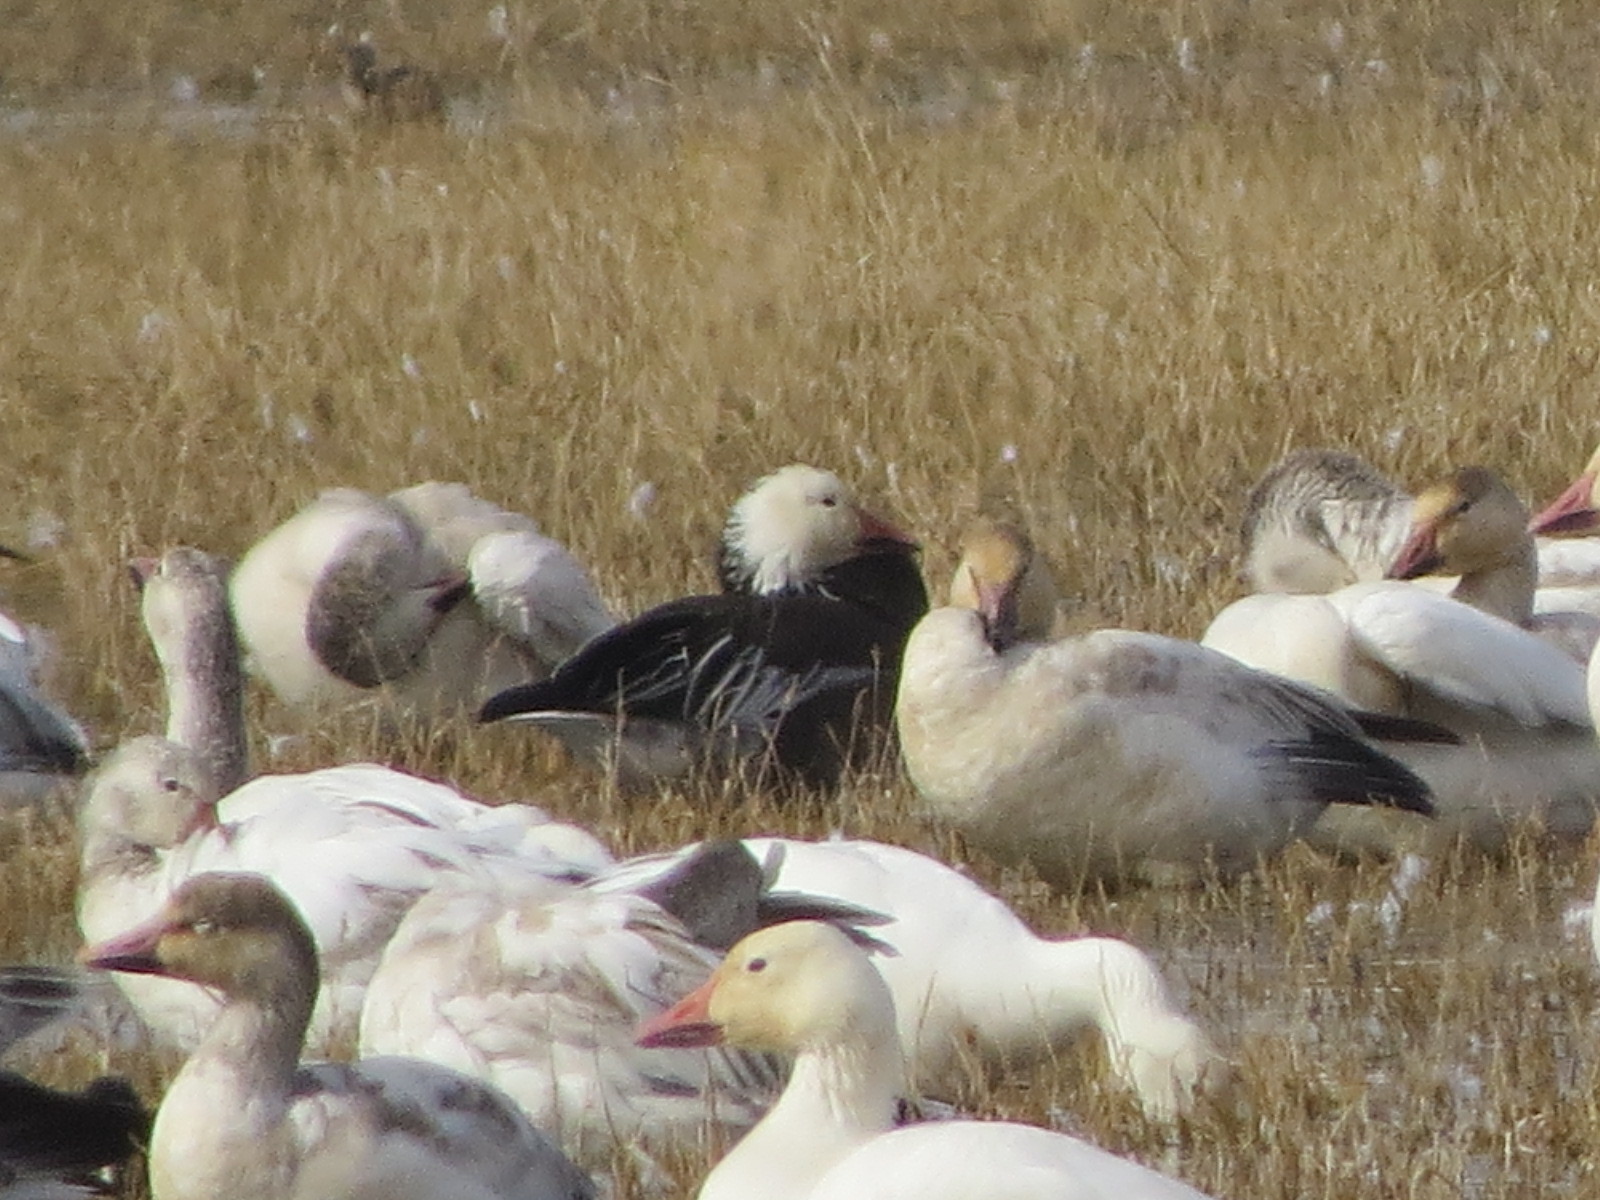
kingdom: Animalia
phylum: Chordata
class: Aves
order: Anseriformes
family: Anatidae
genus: Anser
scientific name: Anser caerulescens
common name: Snow goose
